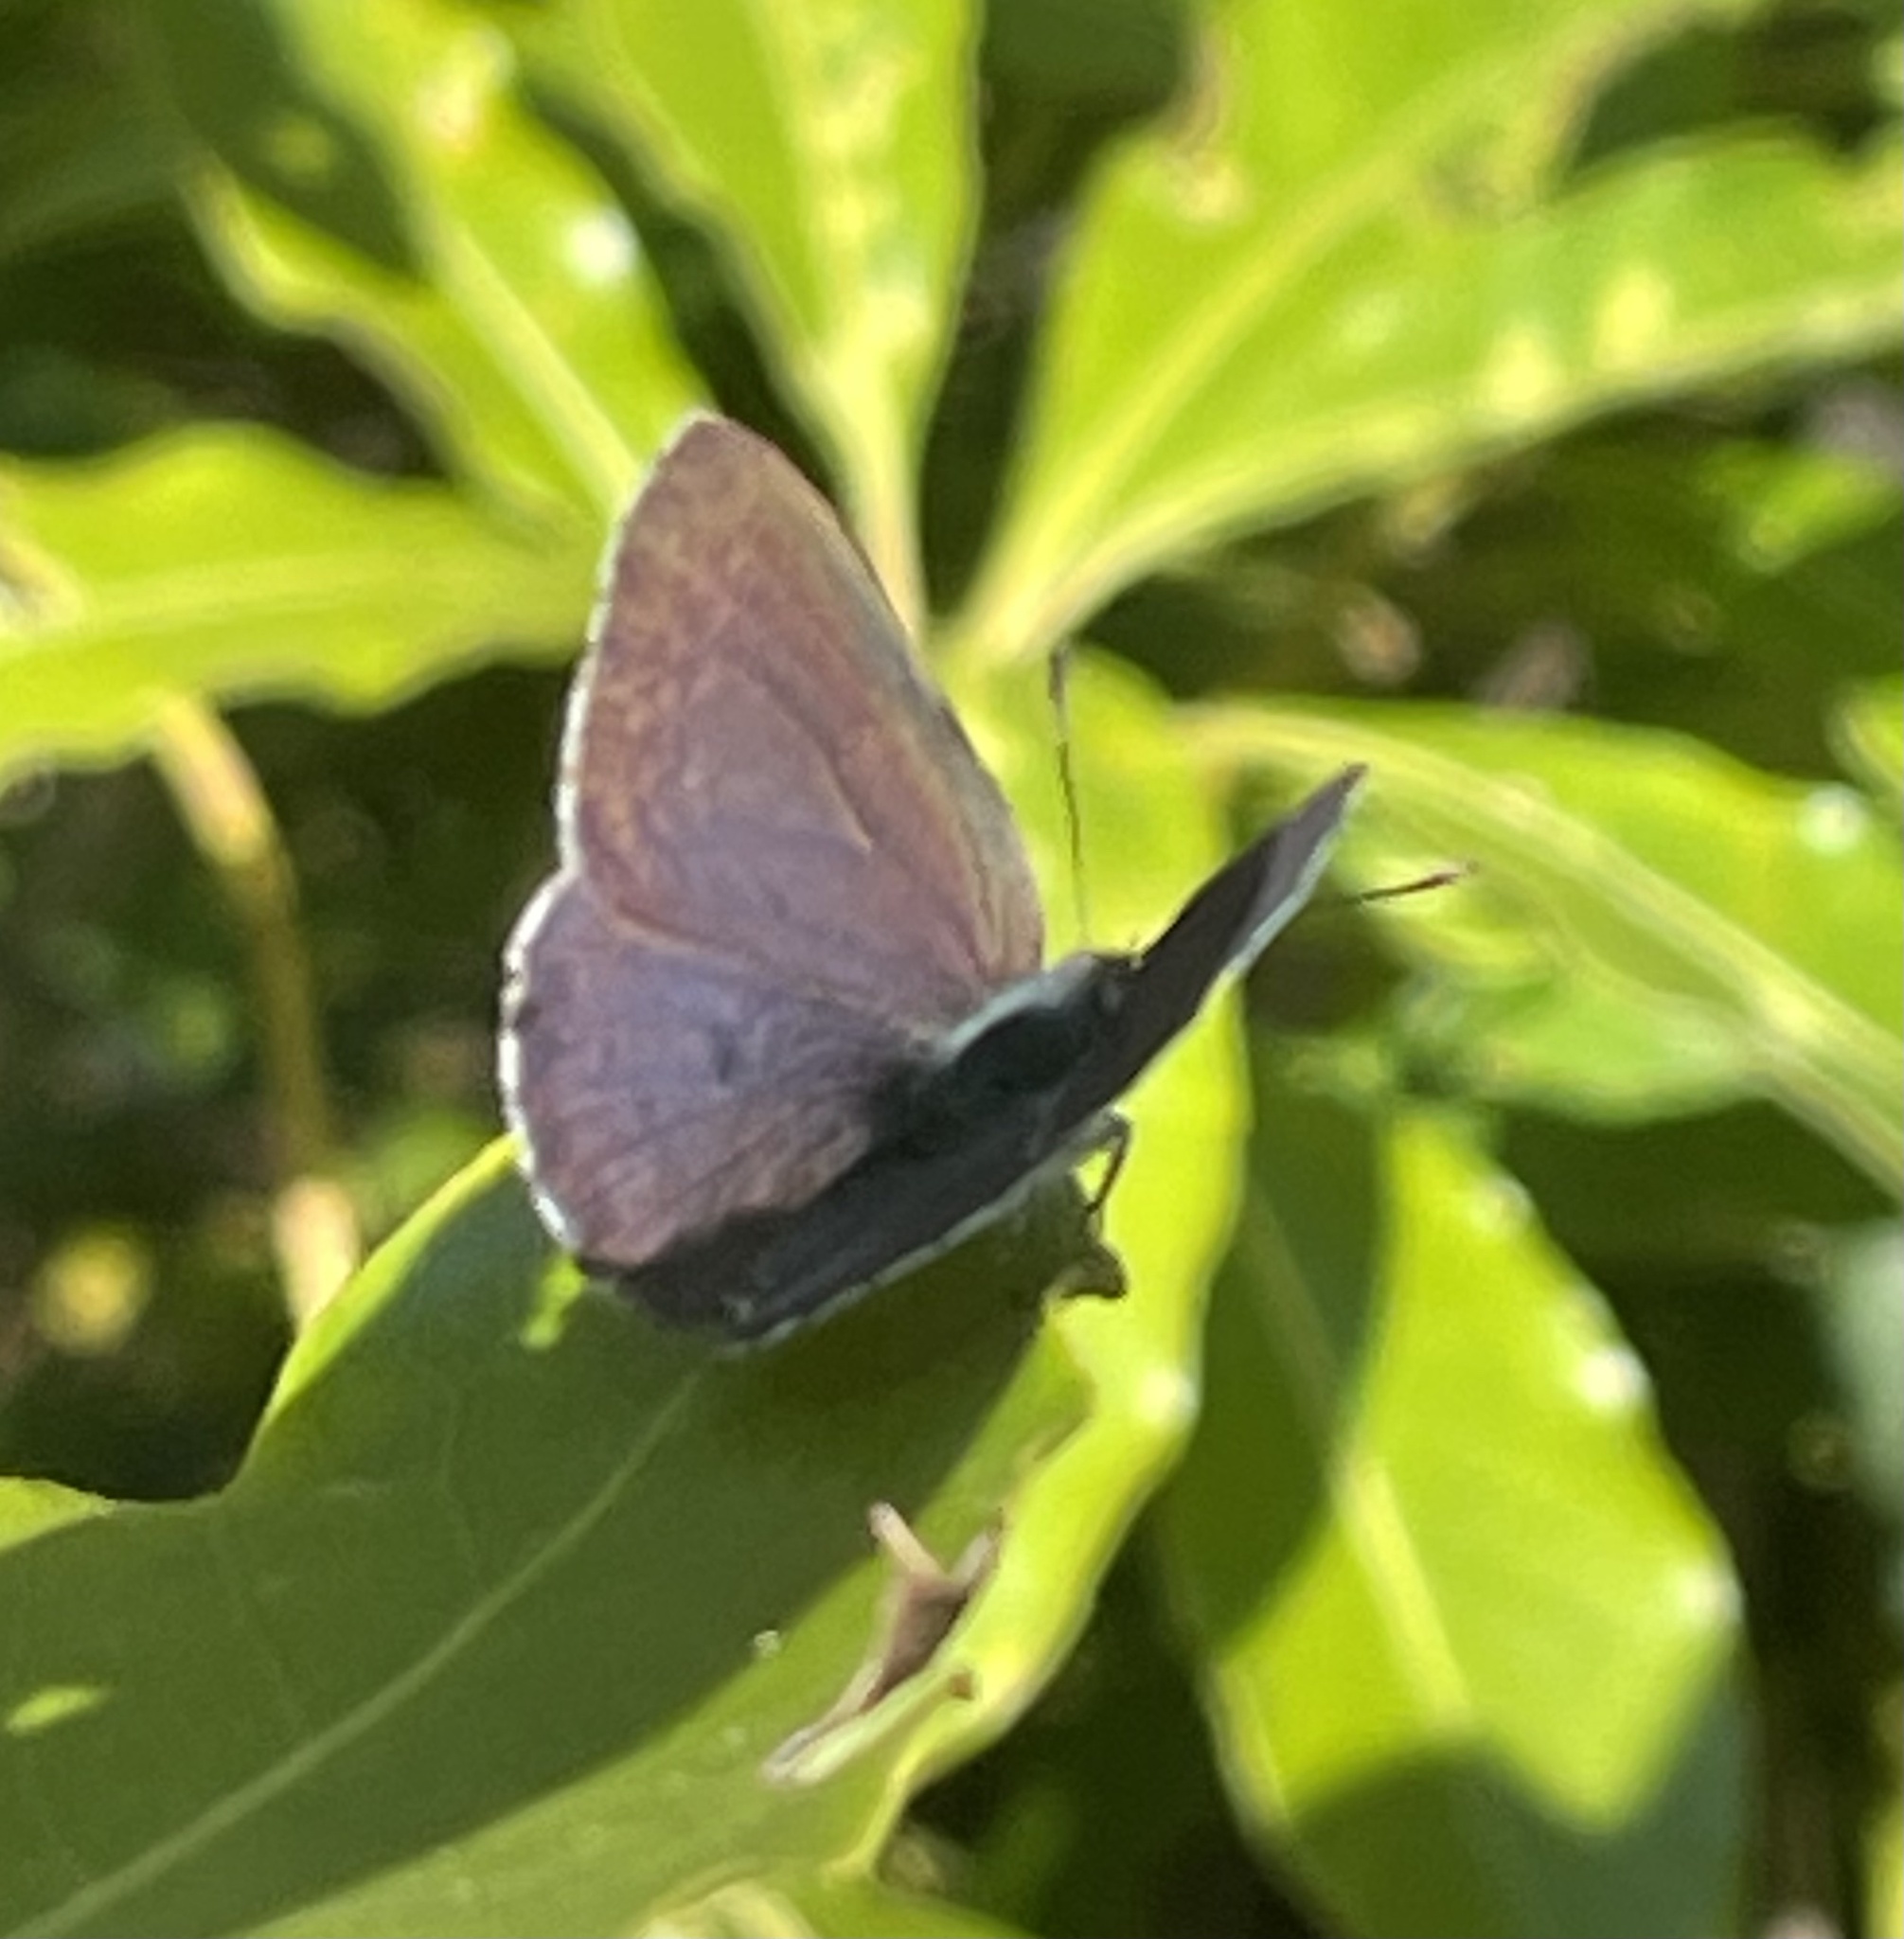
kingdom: Animalia
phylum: Arthropoda
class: Insecta
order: Lepidoptera
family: Lycaenidae
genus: Candalides
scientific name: Candalides
